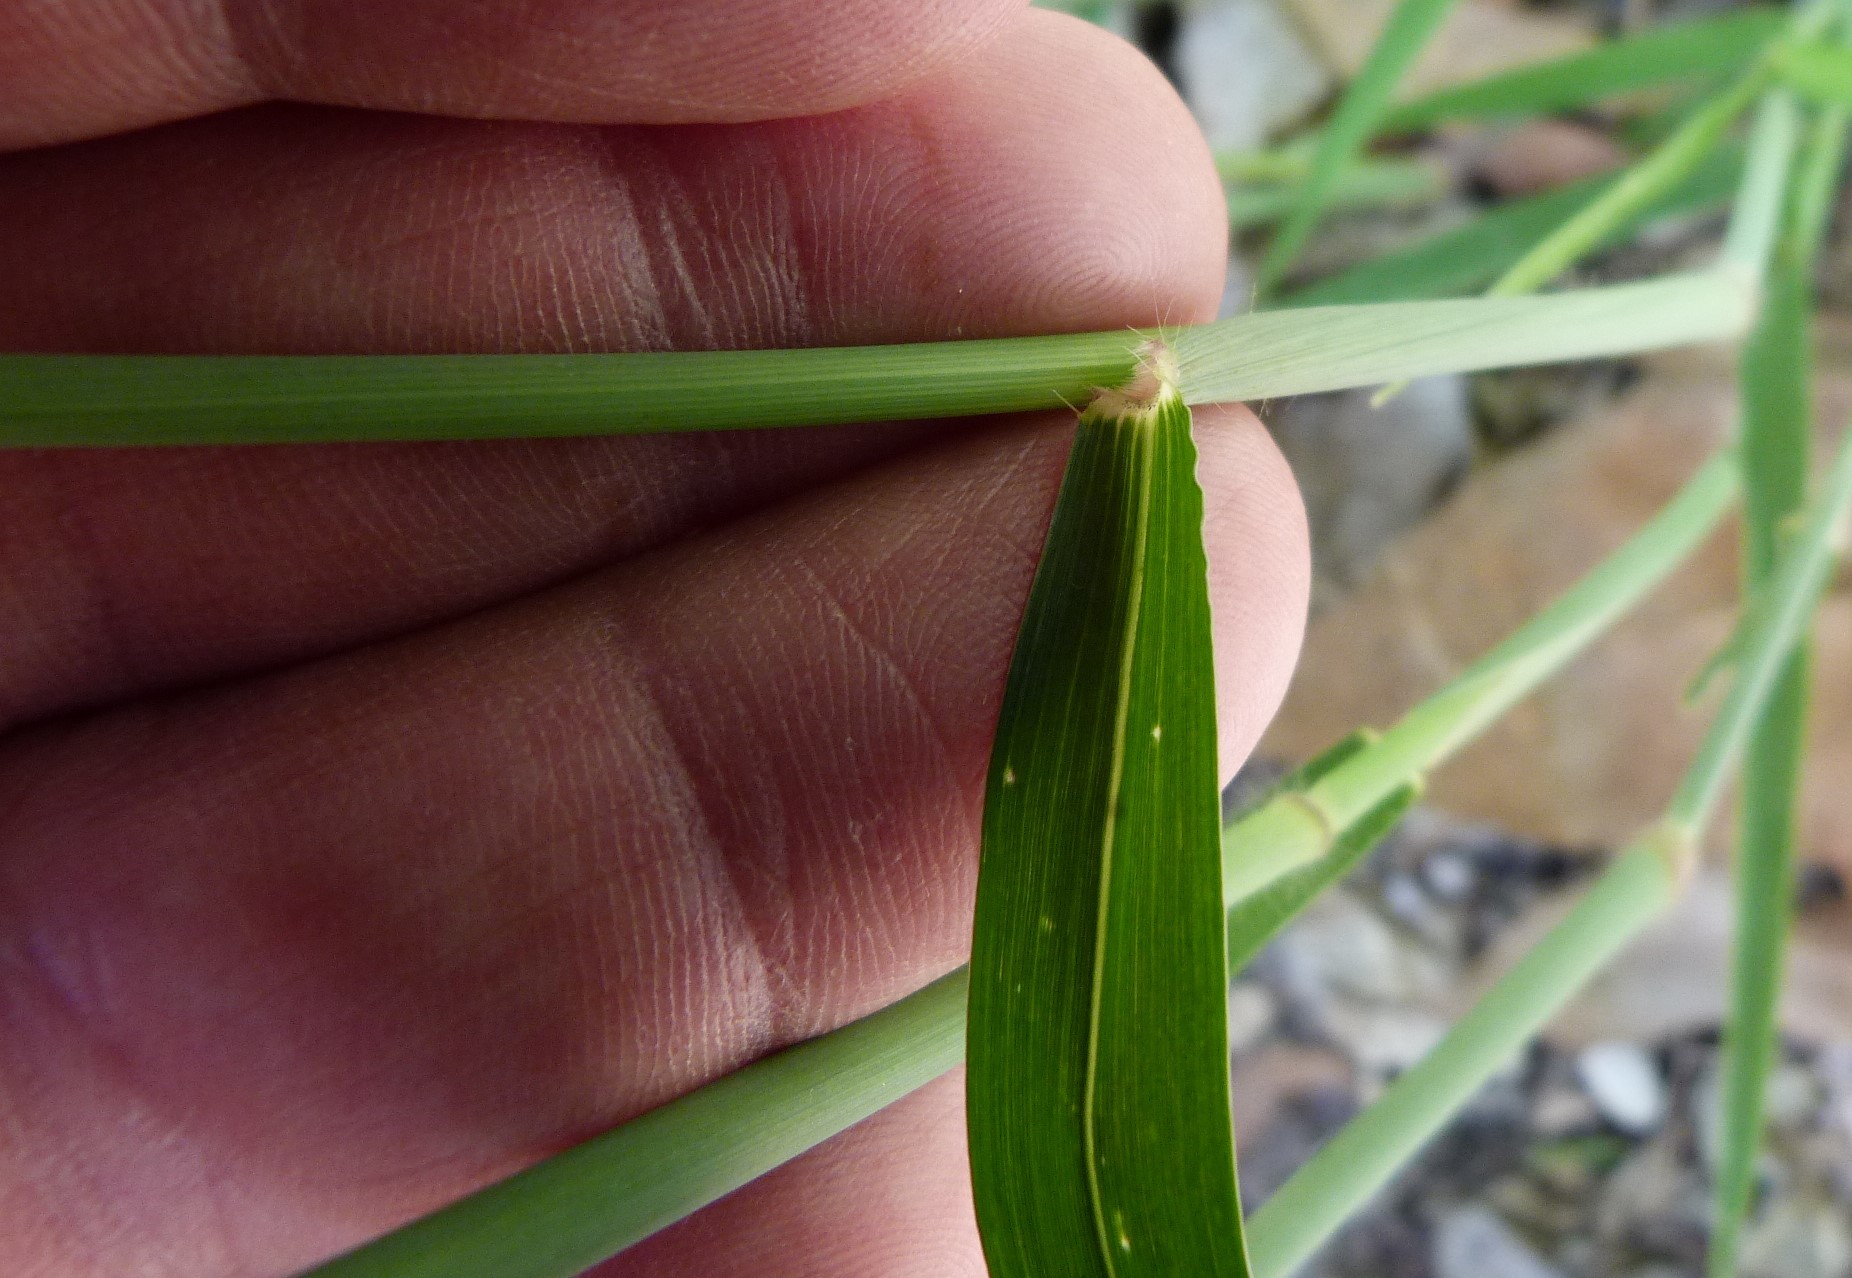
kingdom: Plantae
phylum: Tracheophyta
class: Liliopsida
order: Poales
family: Poaceae
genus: Melinis
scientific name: Melinis repens
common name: Rose natal grass
